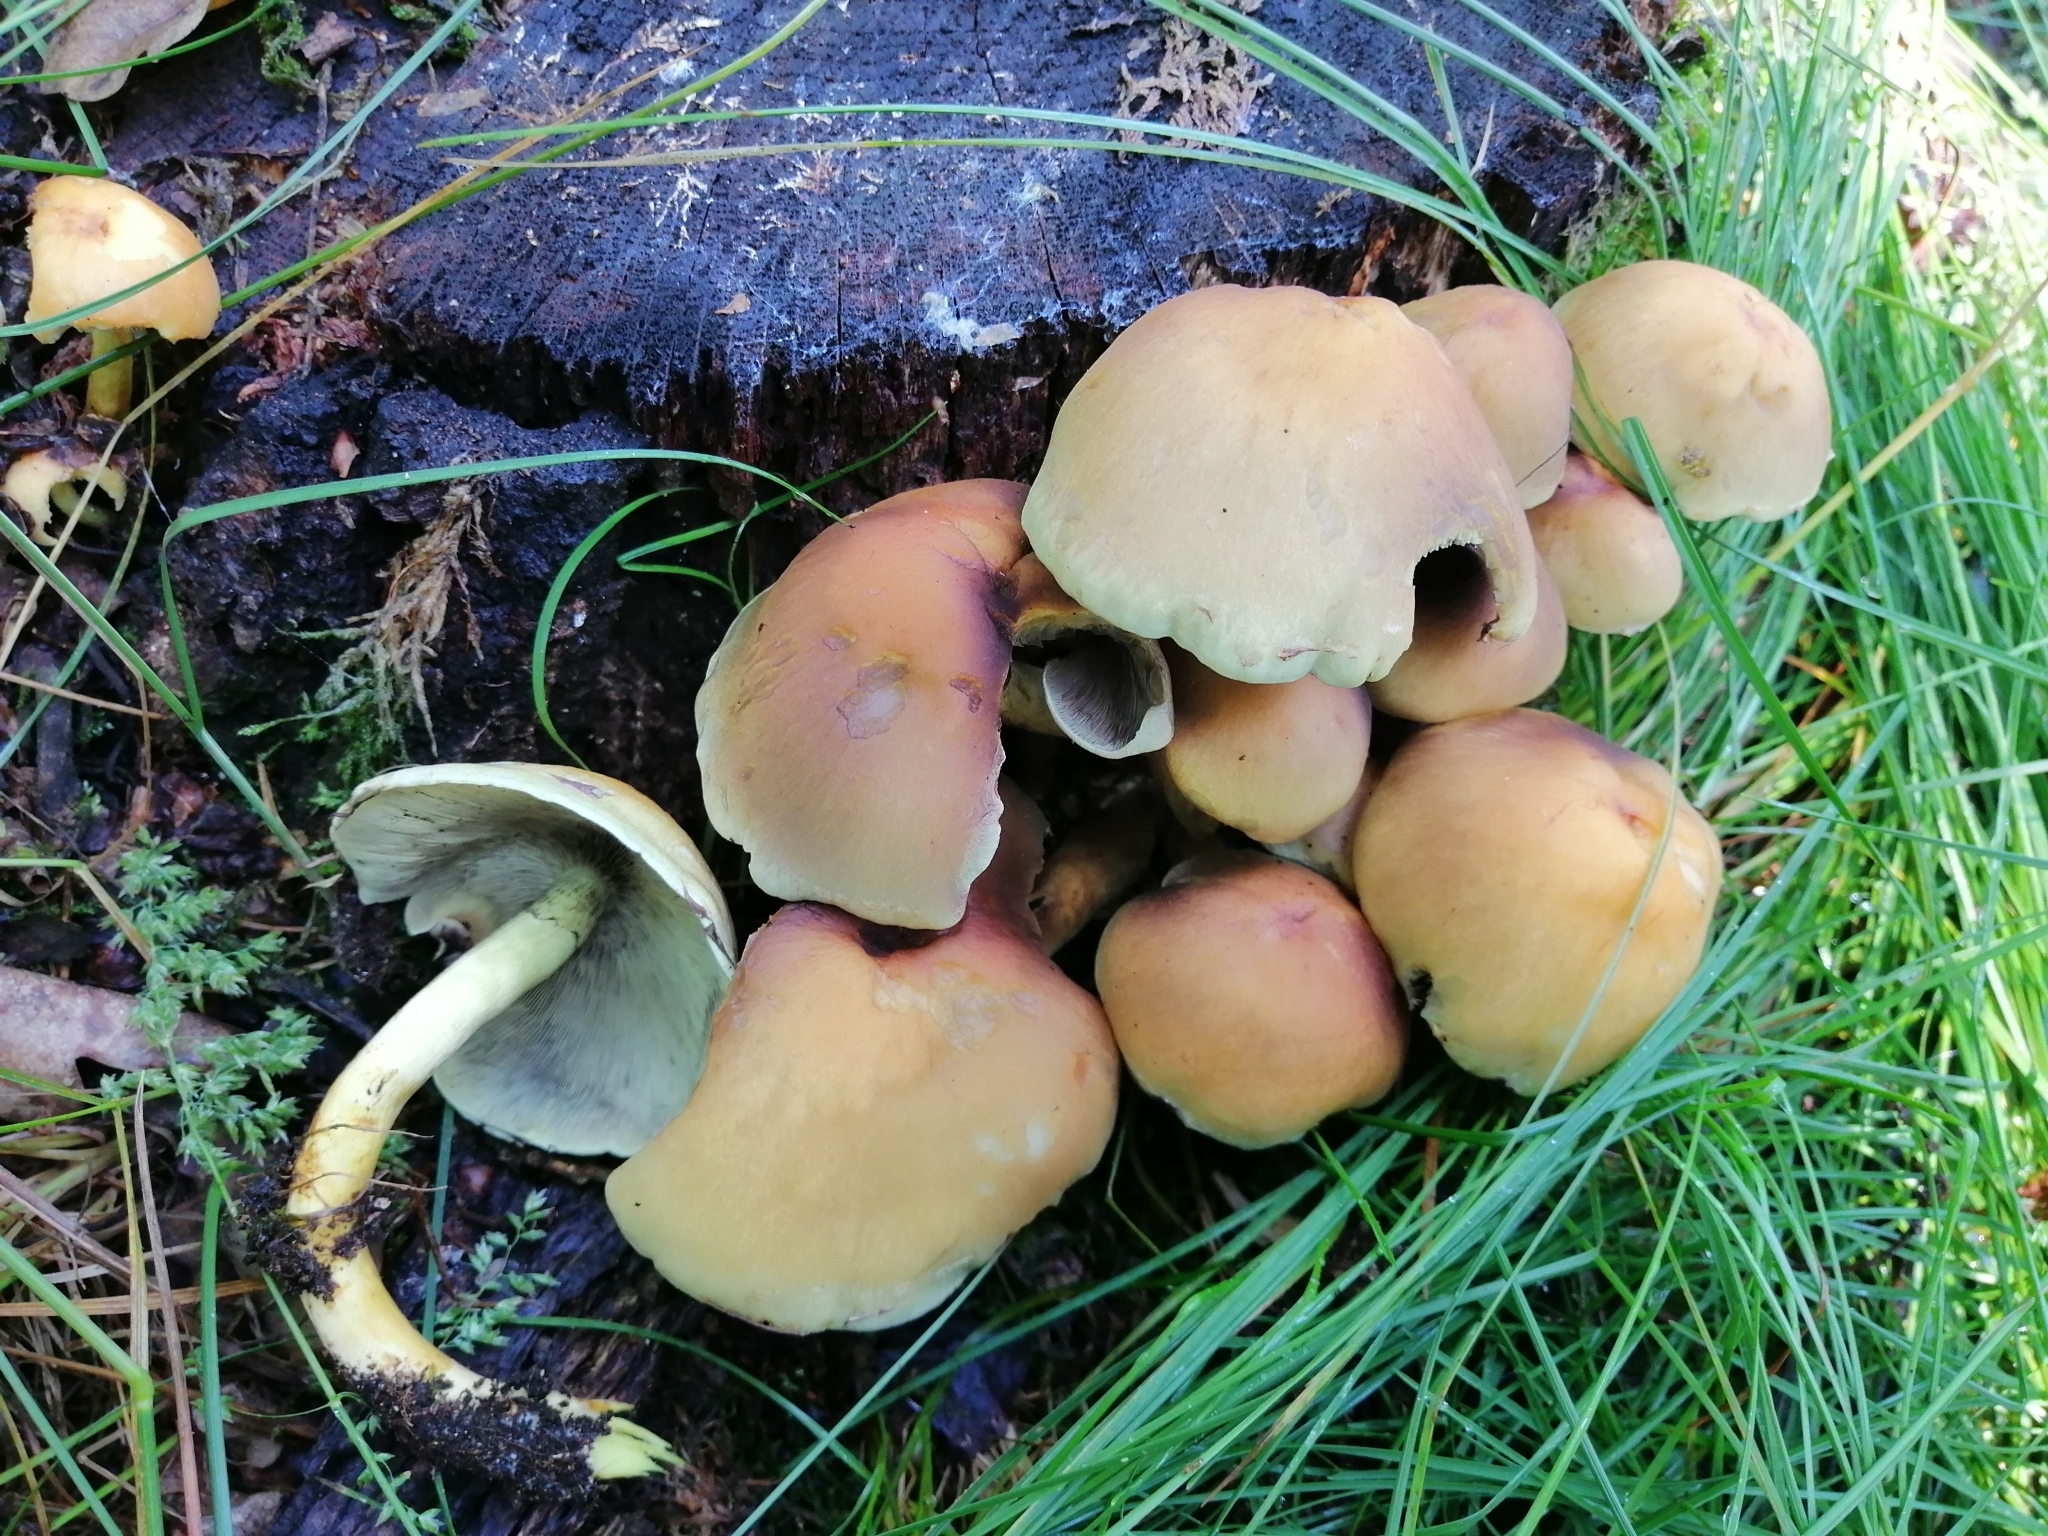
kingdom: Fungi
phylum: Basidiomycota
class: Agaricomycetes
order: Agaricales
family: Strophariaceae
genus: Hypholoma
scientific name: Hypholoma fasciculare
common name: Sulphur tuft
